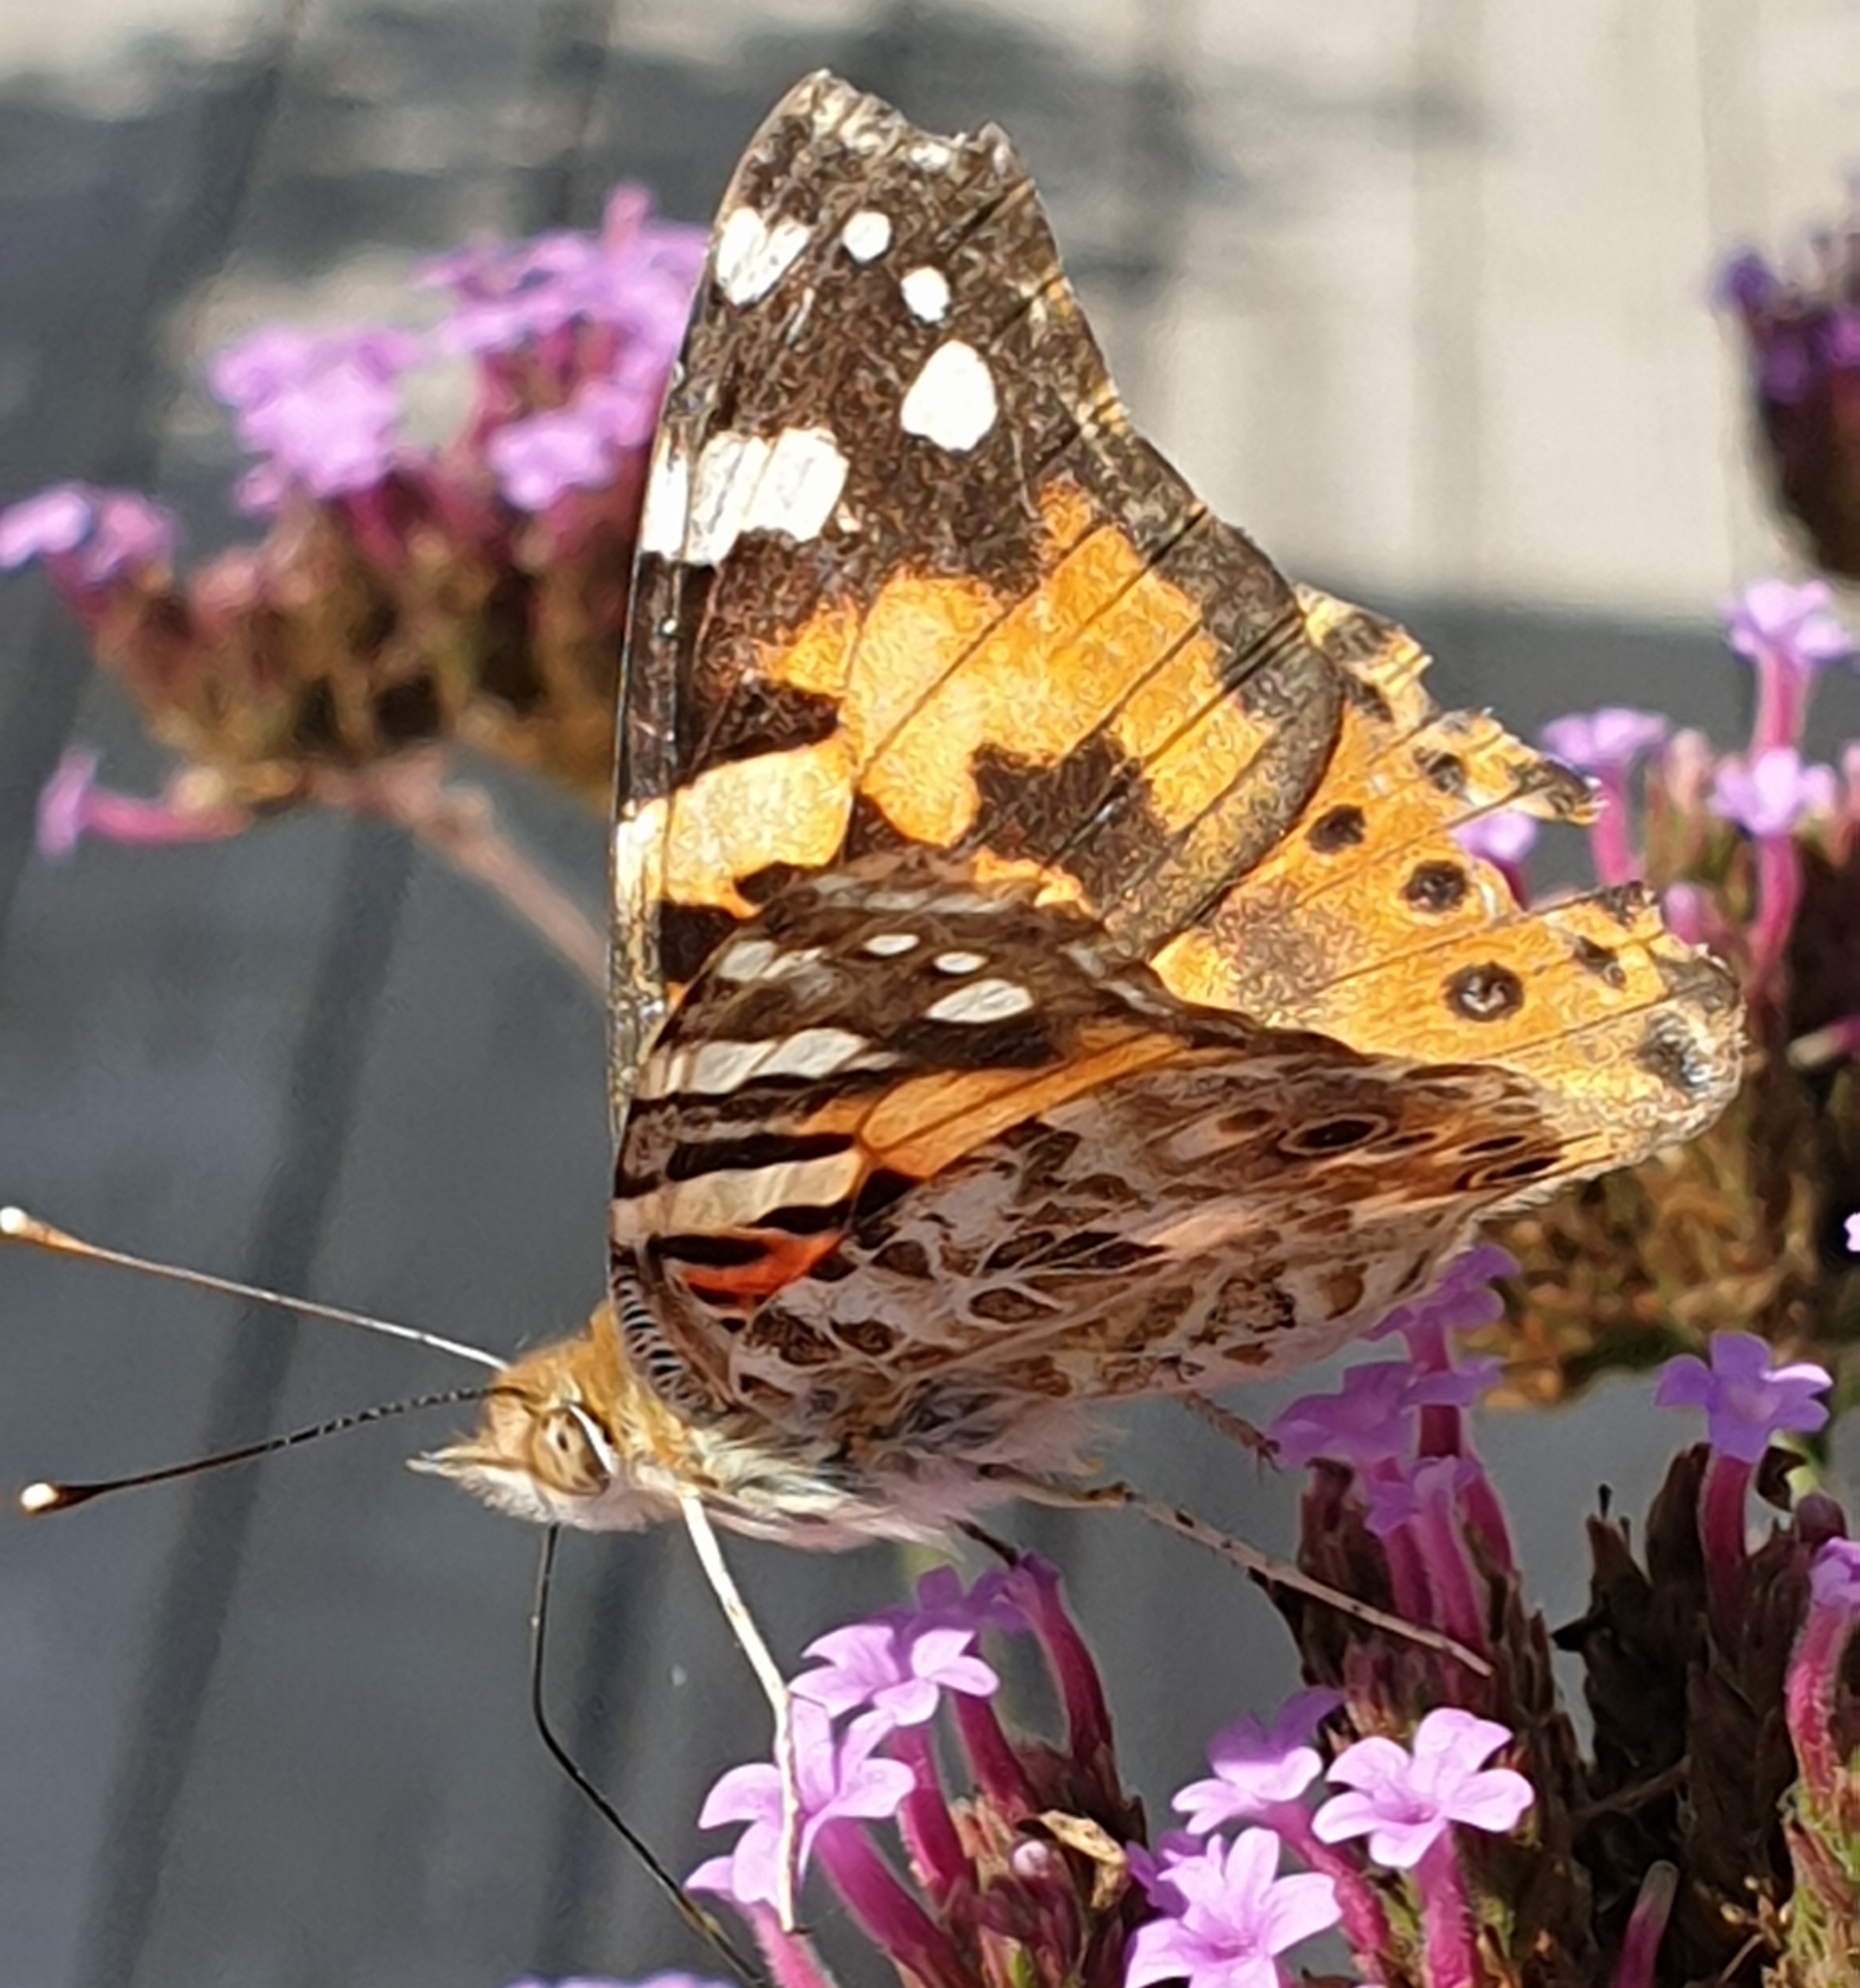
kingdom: Animalia
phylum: Arthropoda
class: Insecta
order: Lepidoptera
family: Nymphalidae
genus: Vanessa
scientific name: Vanessa cardui
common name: Painted lady
